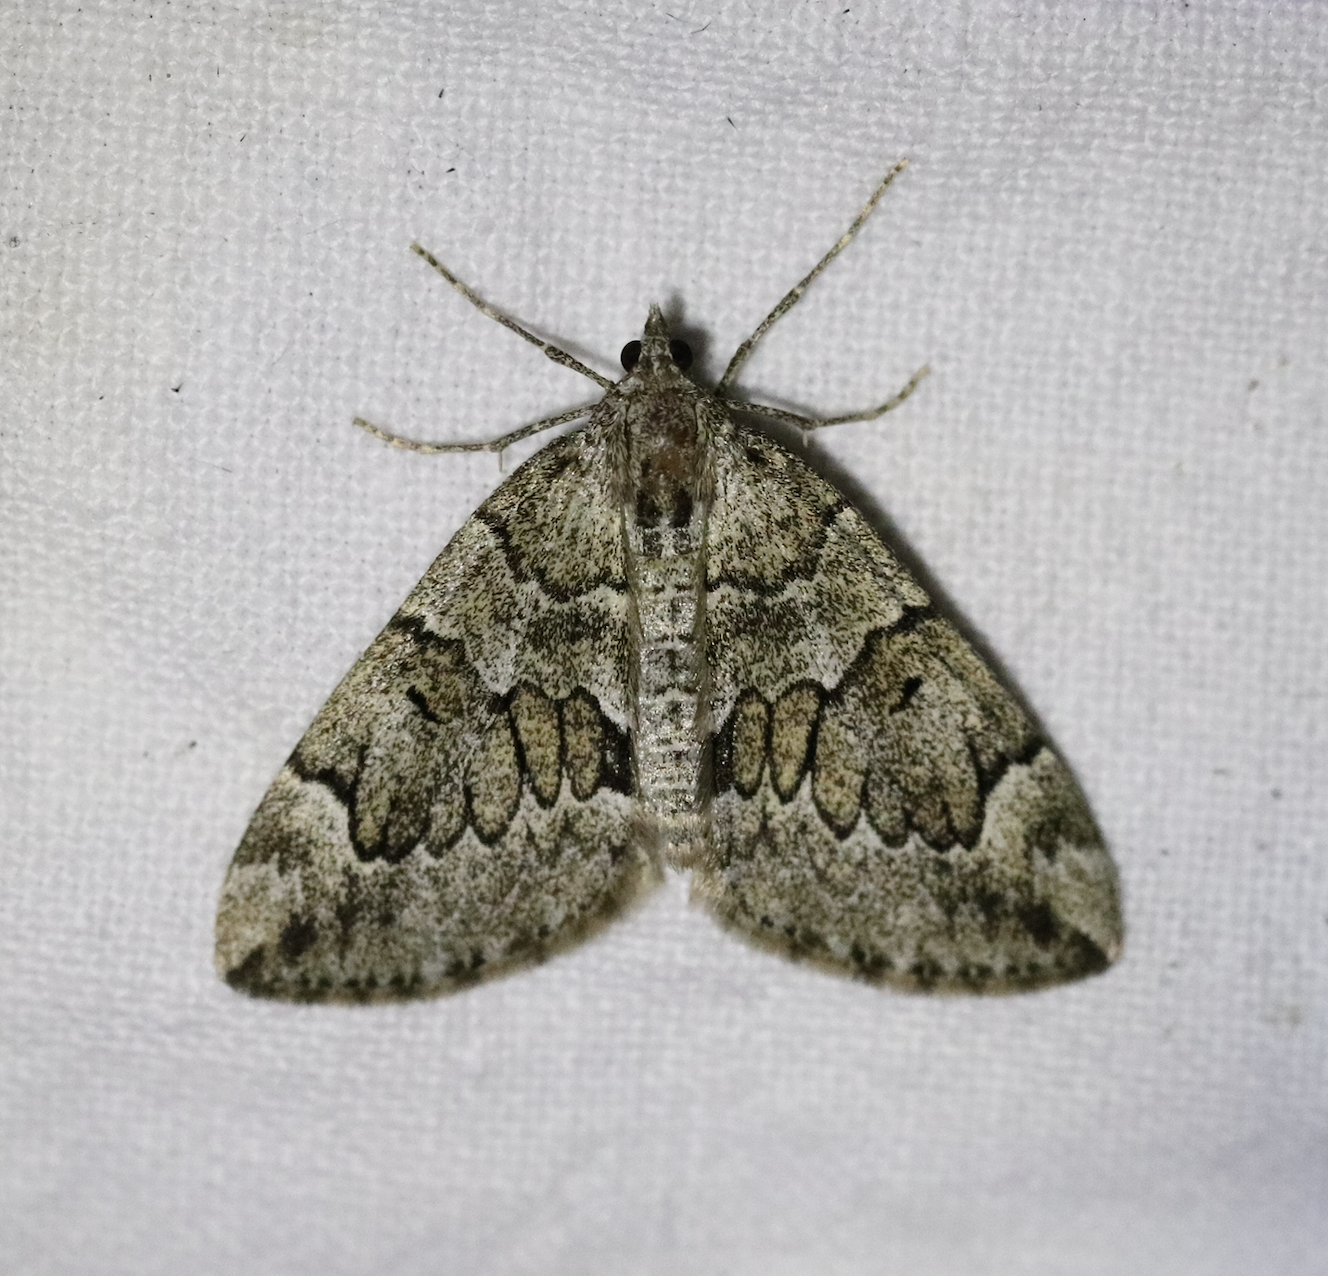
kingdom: Animalia
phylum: Arthropoda
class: Insecta
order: Lepidoptera
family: Geometridae
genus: Thera
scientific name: Thera juniperata
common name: Juniper carpet
